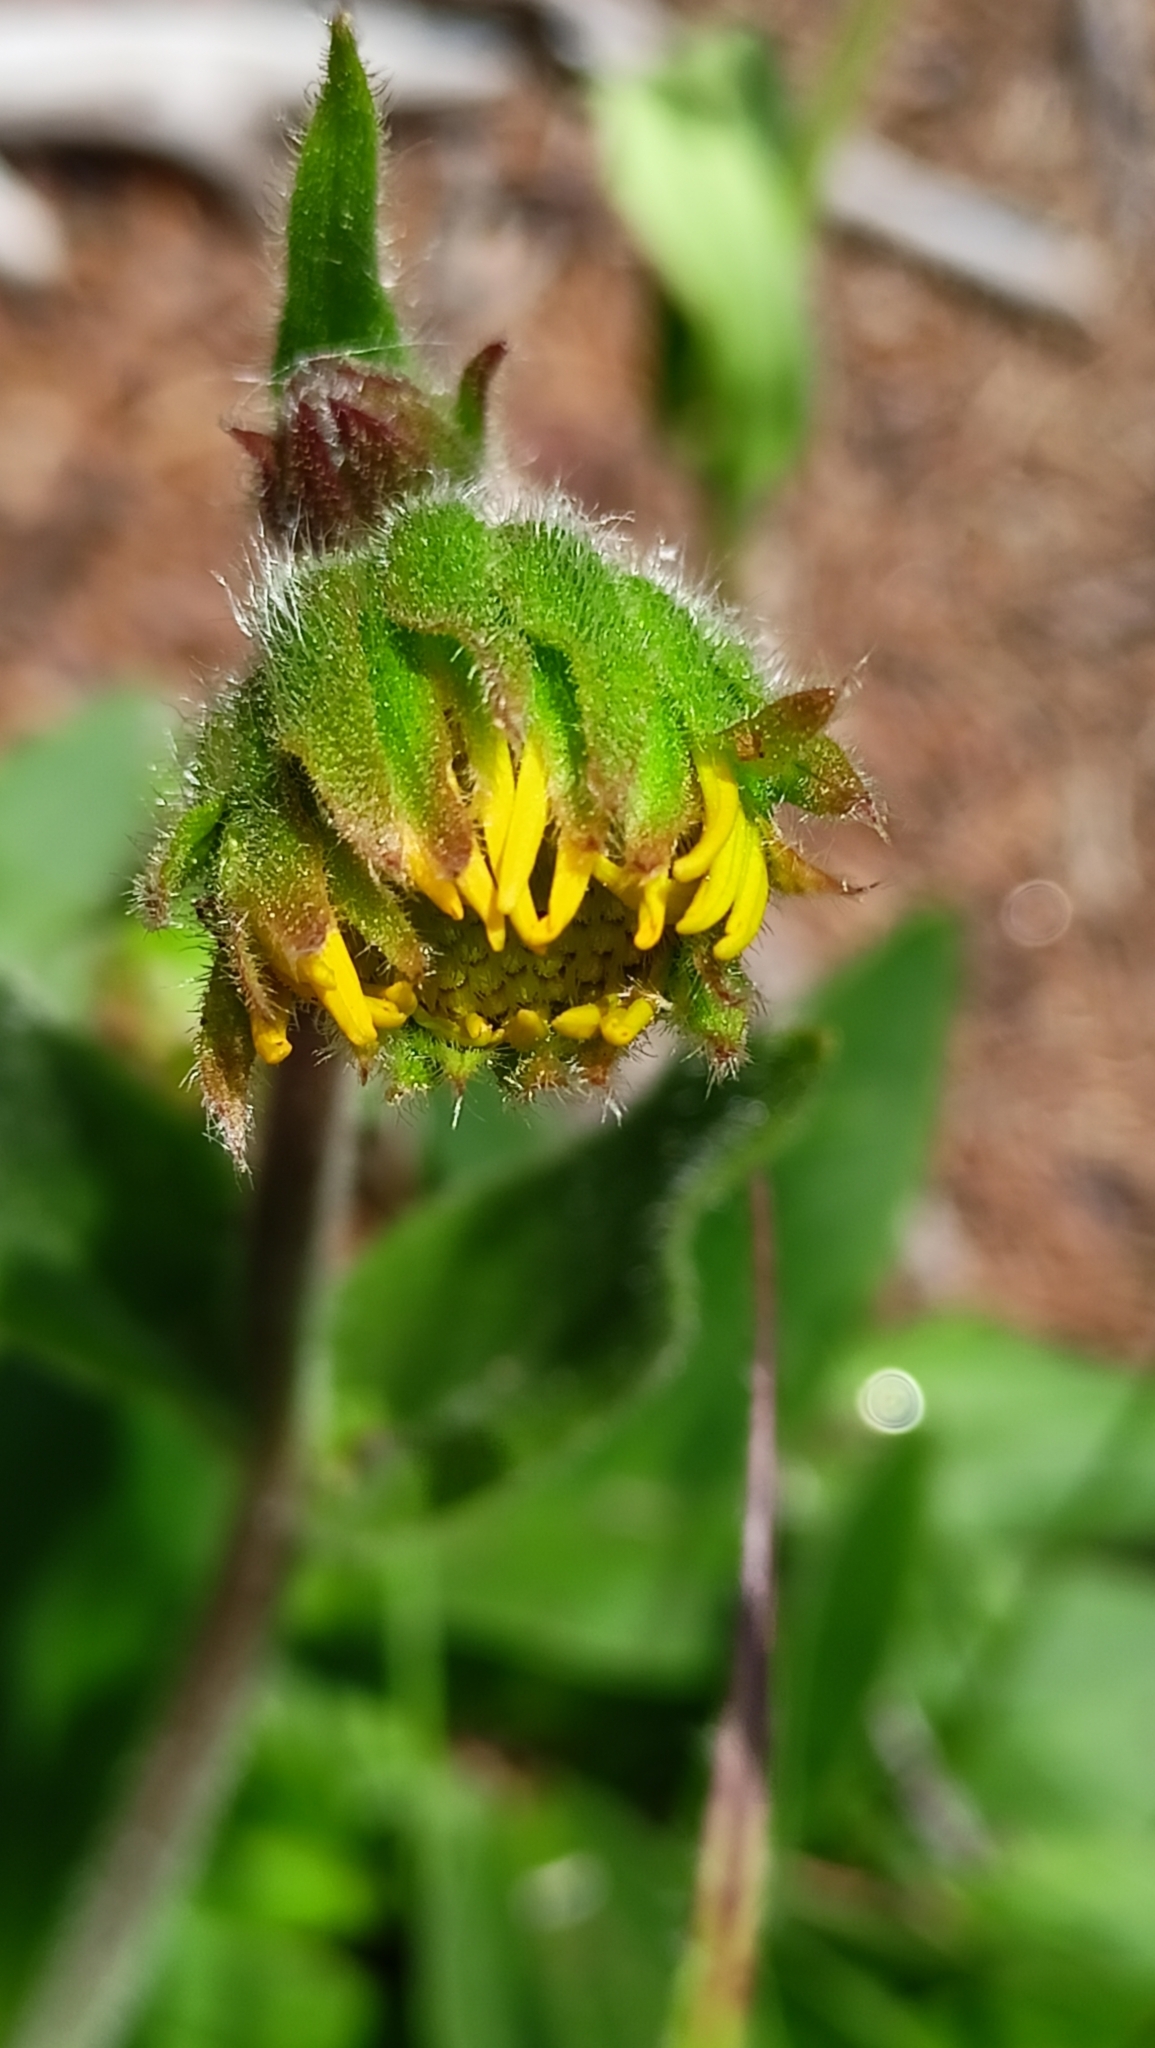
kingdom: Plantae
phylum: Tracheophyta
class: Magnoliopsida
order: Asterales
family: Asteraceae
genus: Arnica
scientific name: Arnica montana
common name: Leopard's bane
